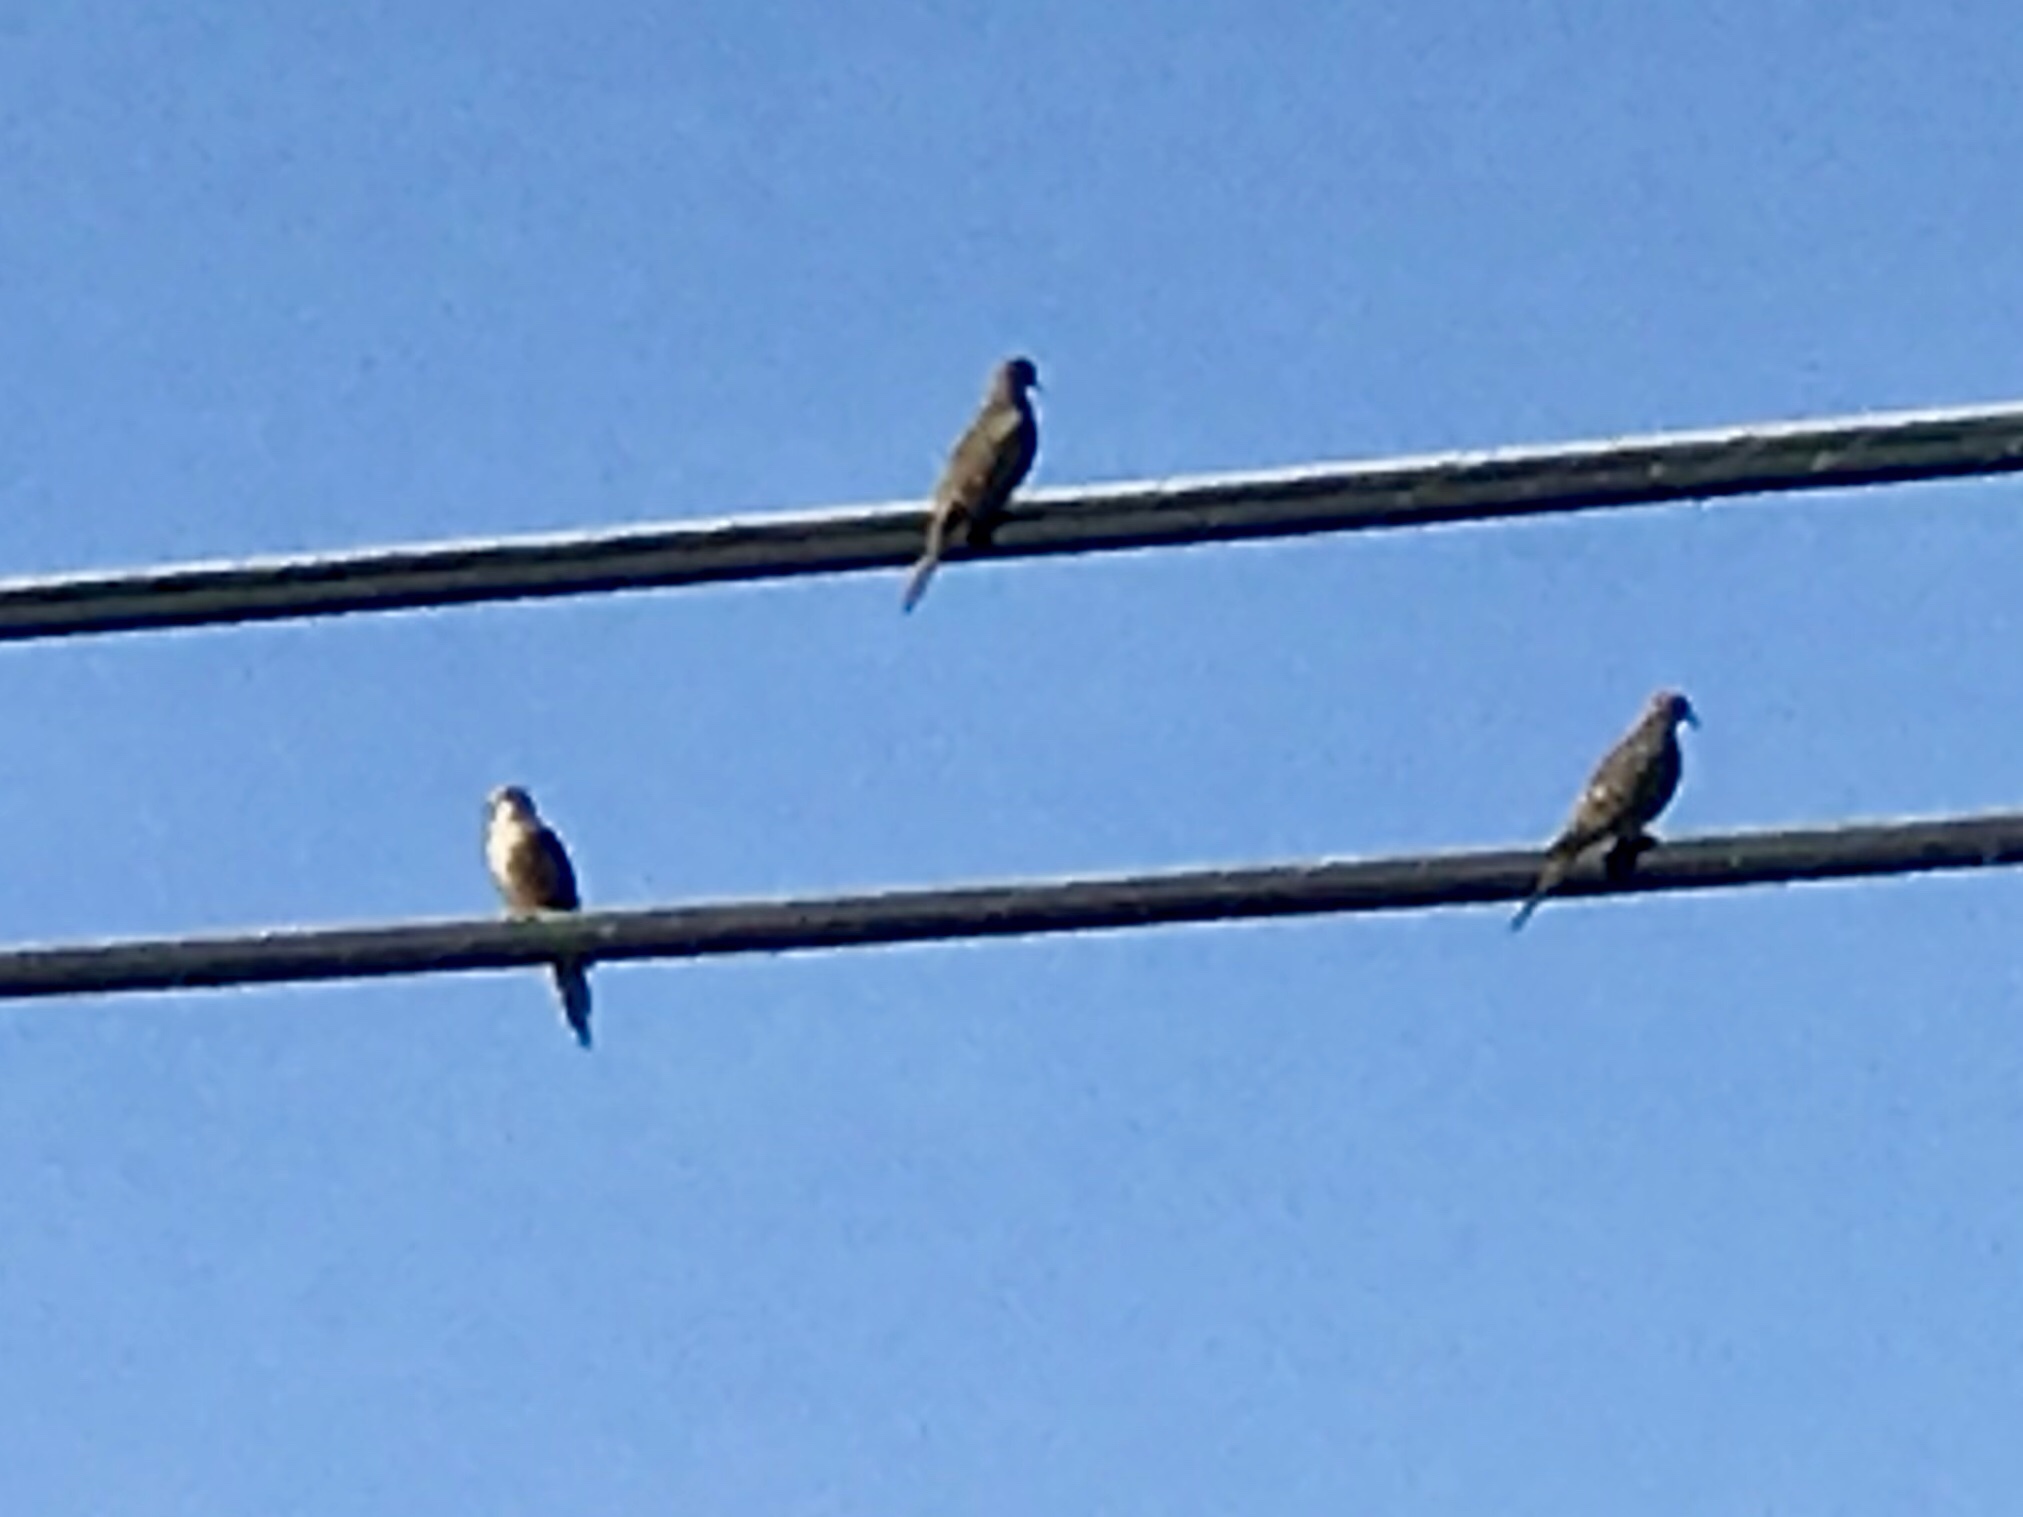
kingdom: Animalia
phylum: Chordata
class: Aves
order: Columbiformes
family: Columbidae
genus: Zenaida
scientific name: Zenaida macroura
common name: Mourning dove
